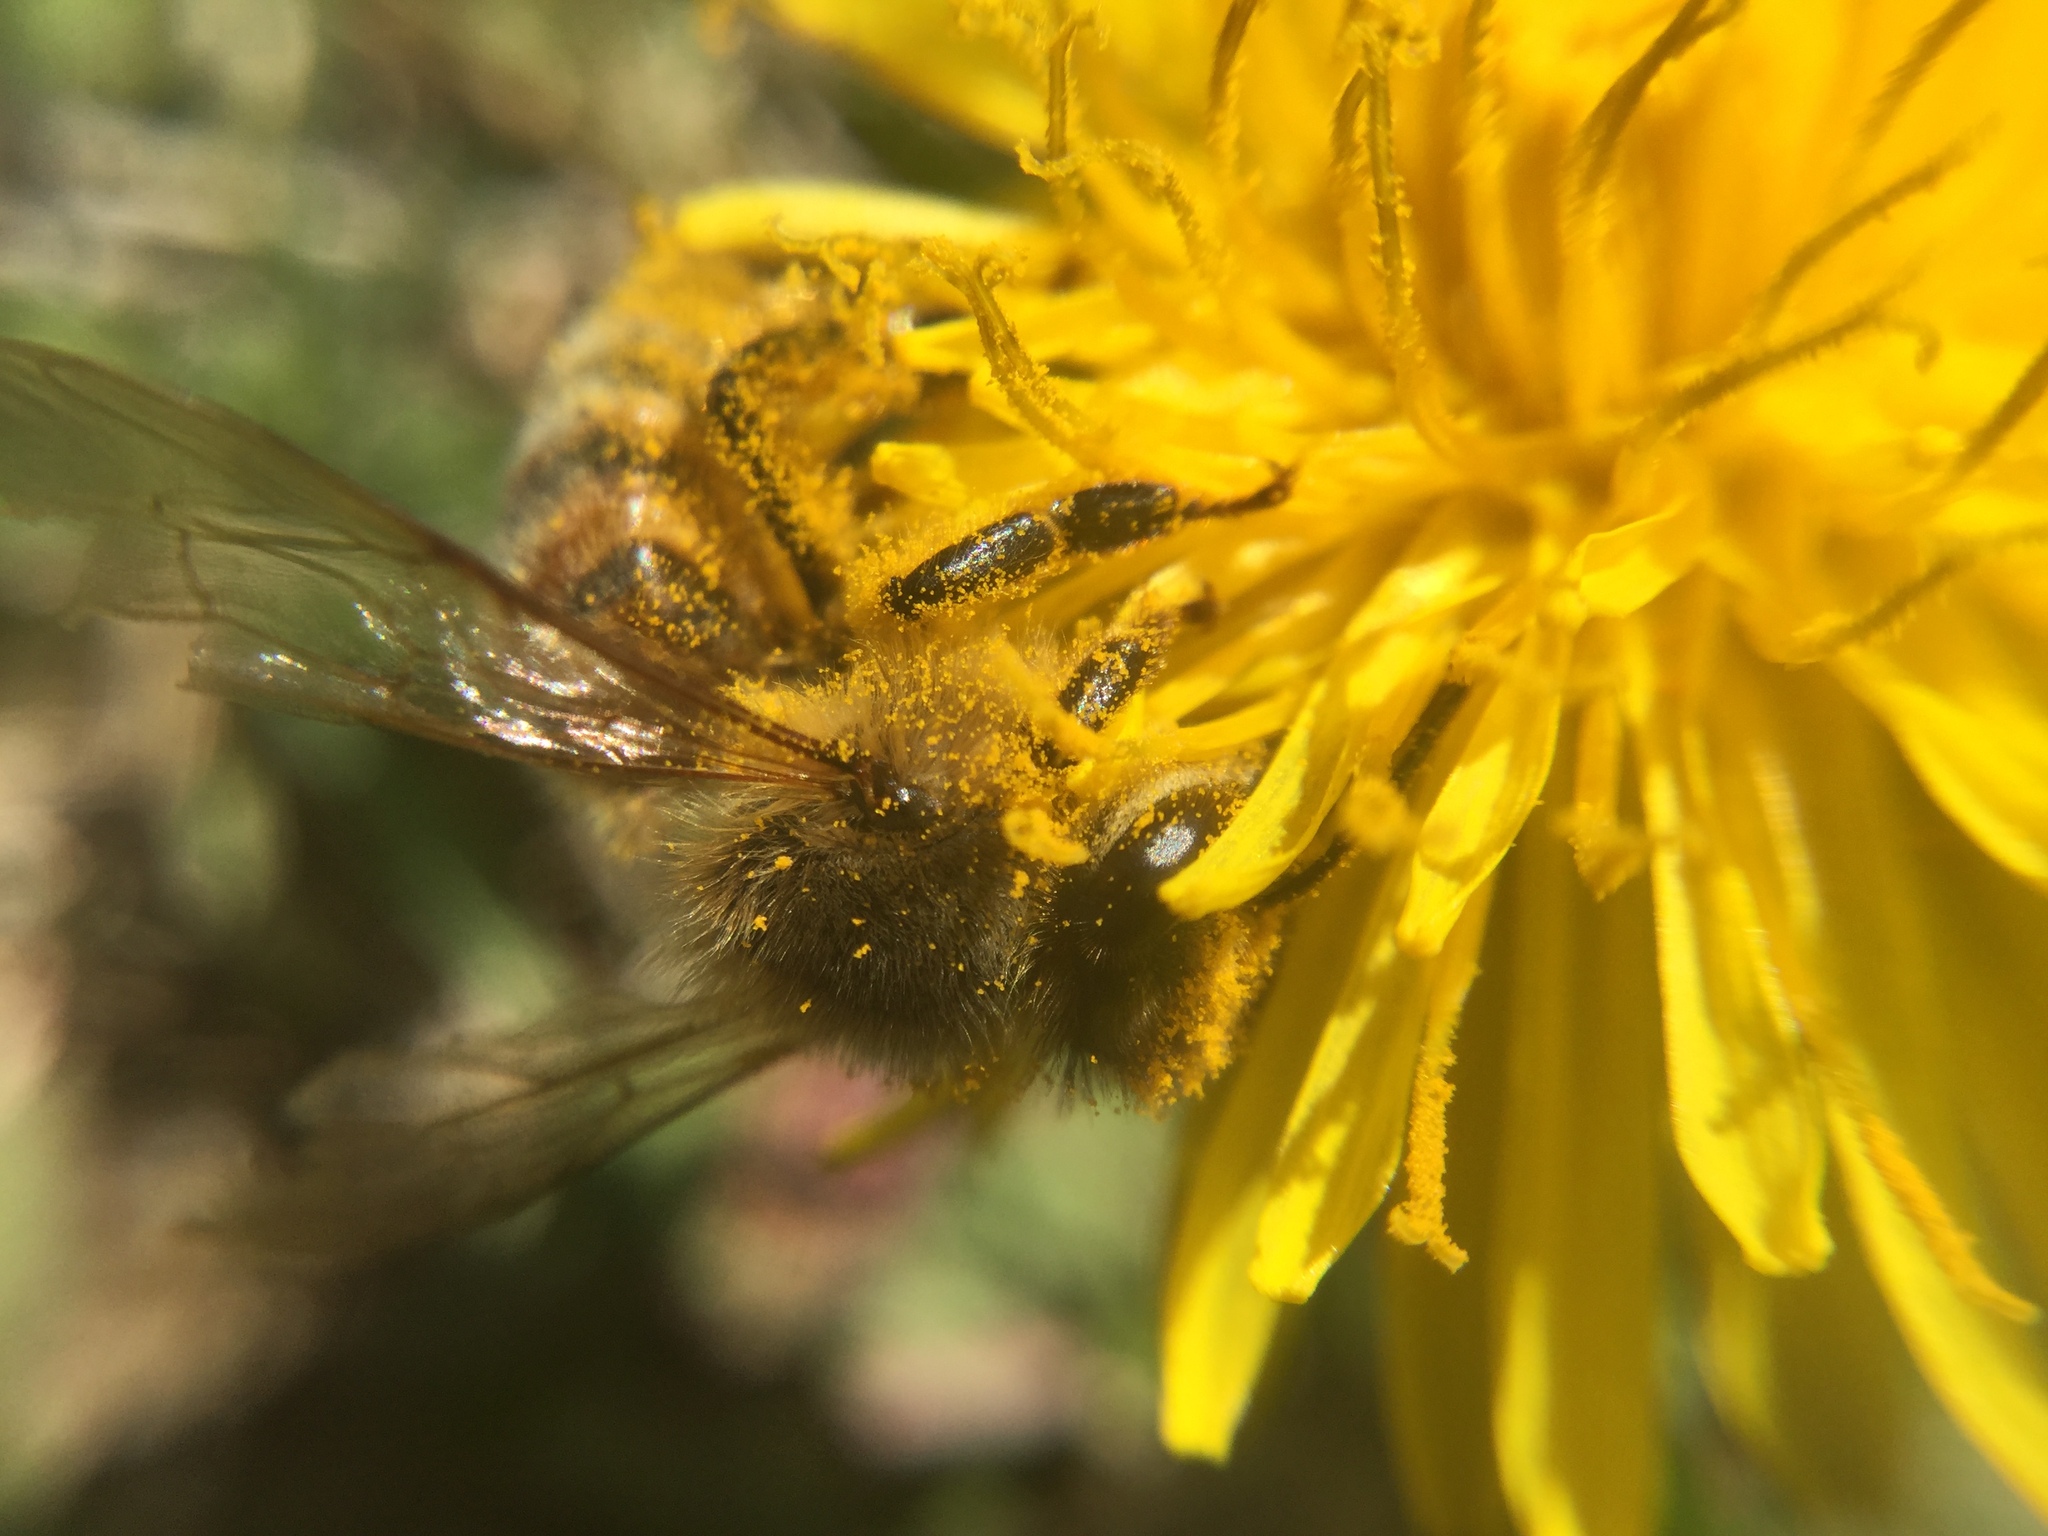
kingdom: Animalia
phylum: Arthropoda
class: Insecta
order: Hymenoptera
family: Apidae
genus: Apis
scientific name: Apis mellifera
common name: Honey bee
